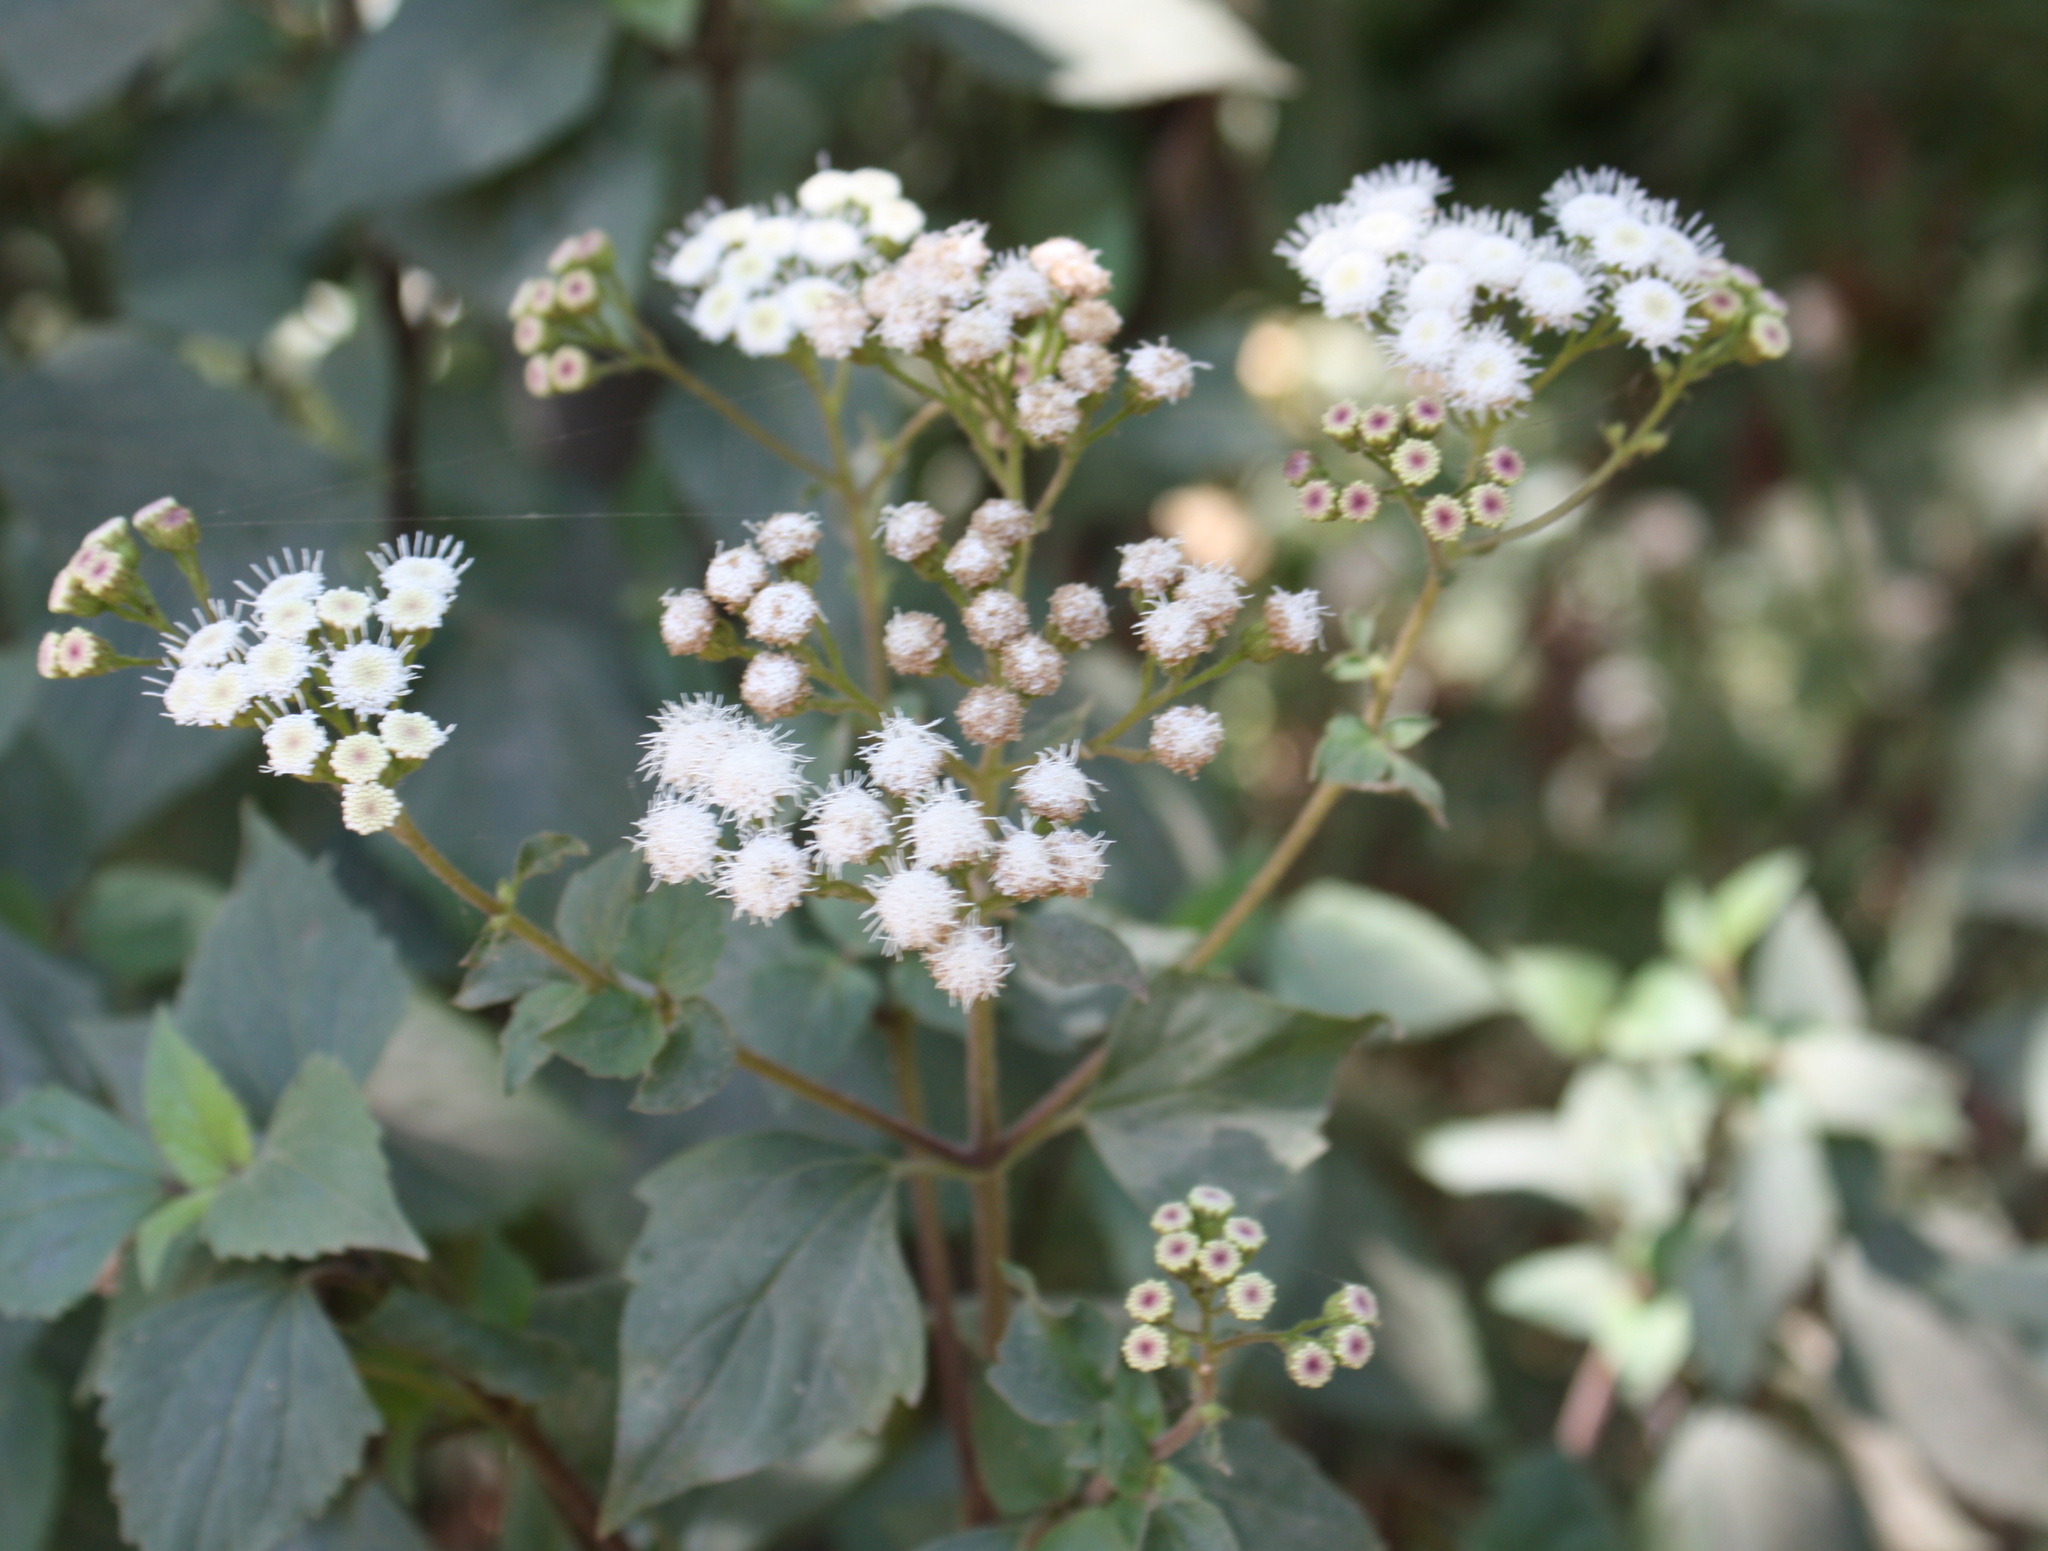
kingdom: Plantae
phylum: Tracheophyta
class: Magnoliopsida
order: Asterales
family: Asteraceae
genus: Ageratina
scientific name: Ageratina adenophora
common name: Sticky snakeroot
